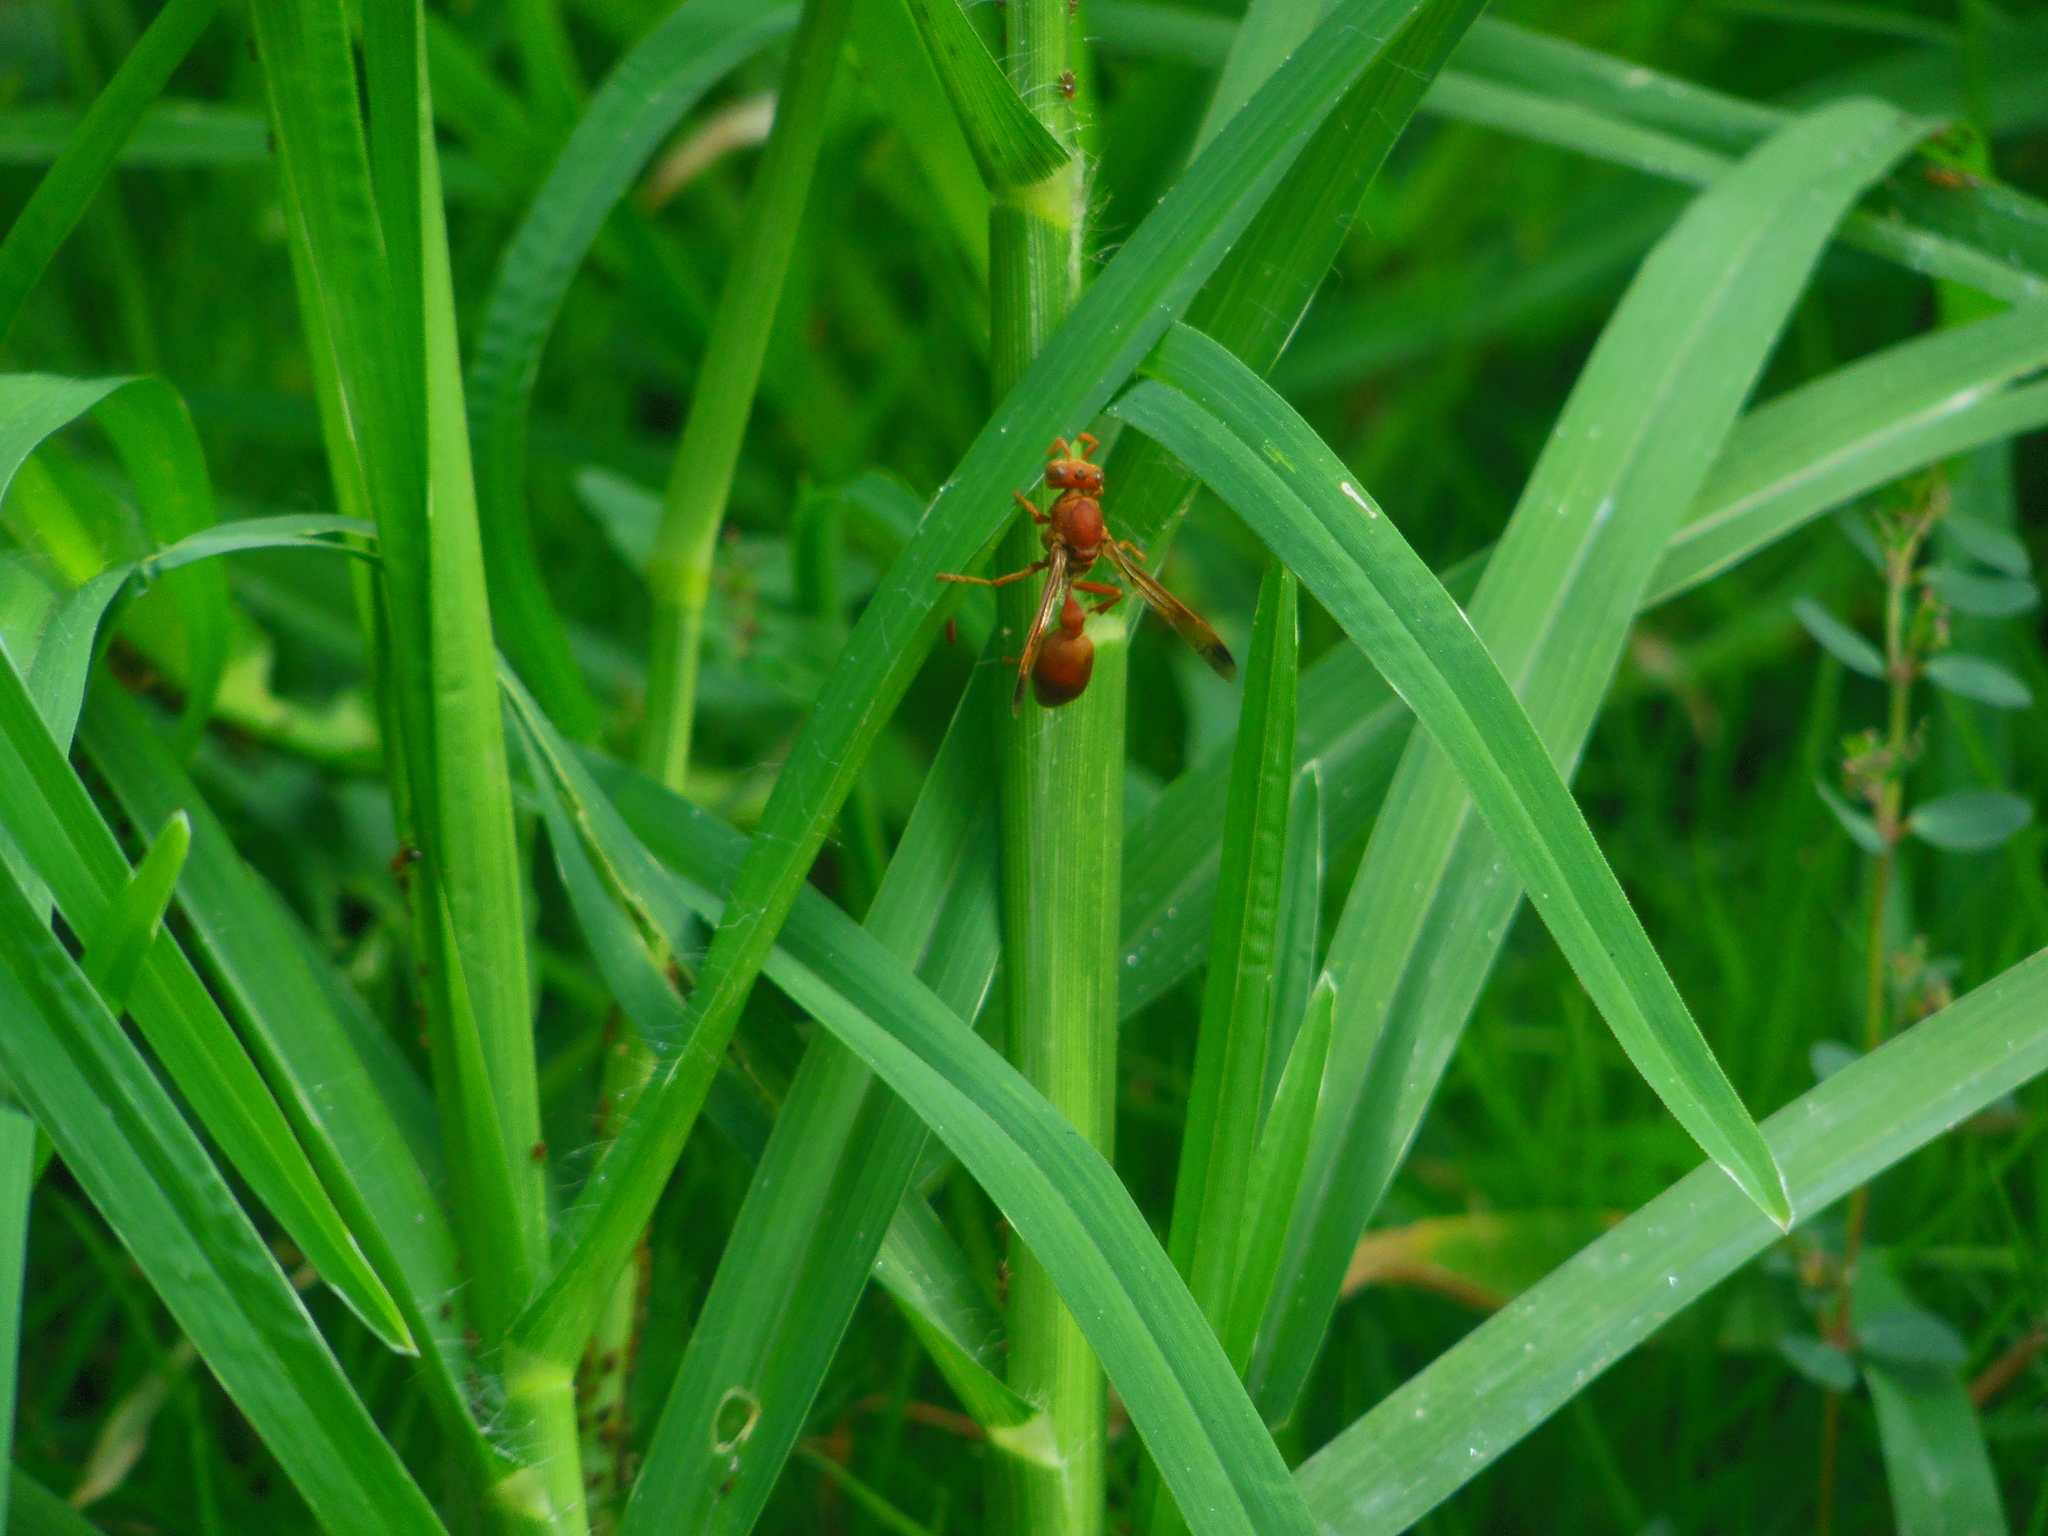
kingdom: Animalia
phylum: Arthropoda
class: Insecta
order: Hymenoptera
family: Vespidae
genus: Ropalidia
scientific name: Ropalidia marginata
